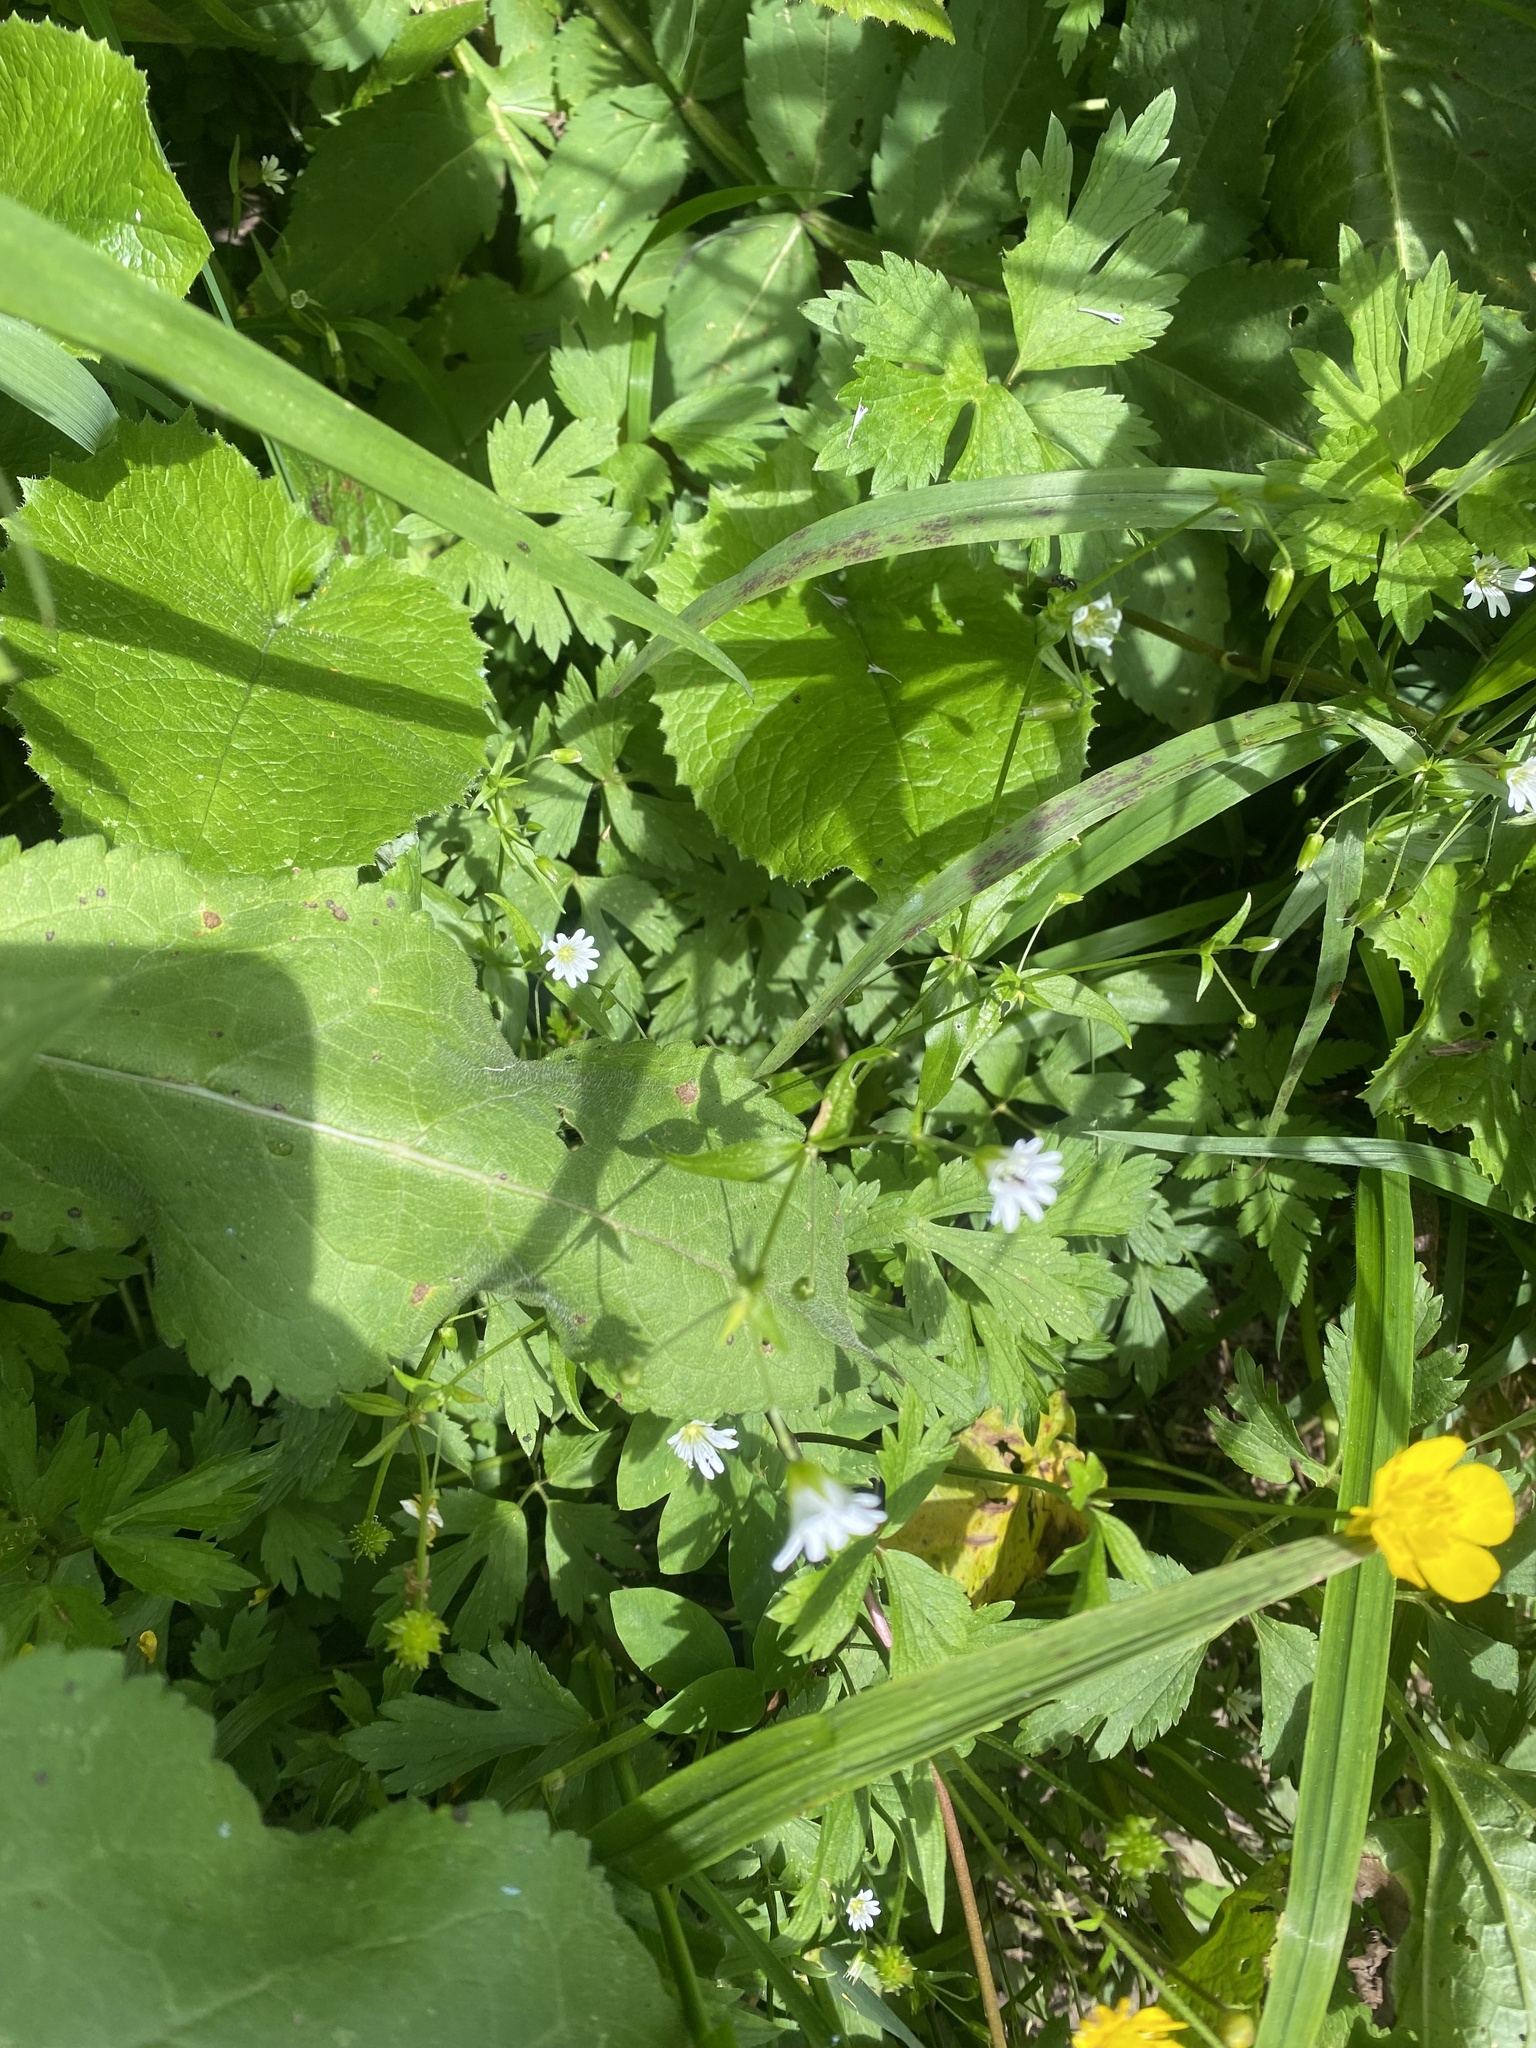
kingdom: Plantae
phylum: Tracheophyta
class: Magnoliopsida
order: Caryophyllales
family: Caryophyllaceae
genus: Cerastium
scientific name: Cerastium davuricum
